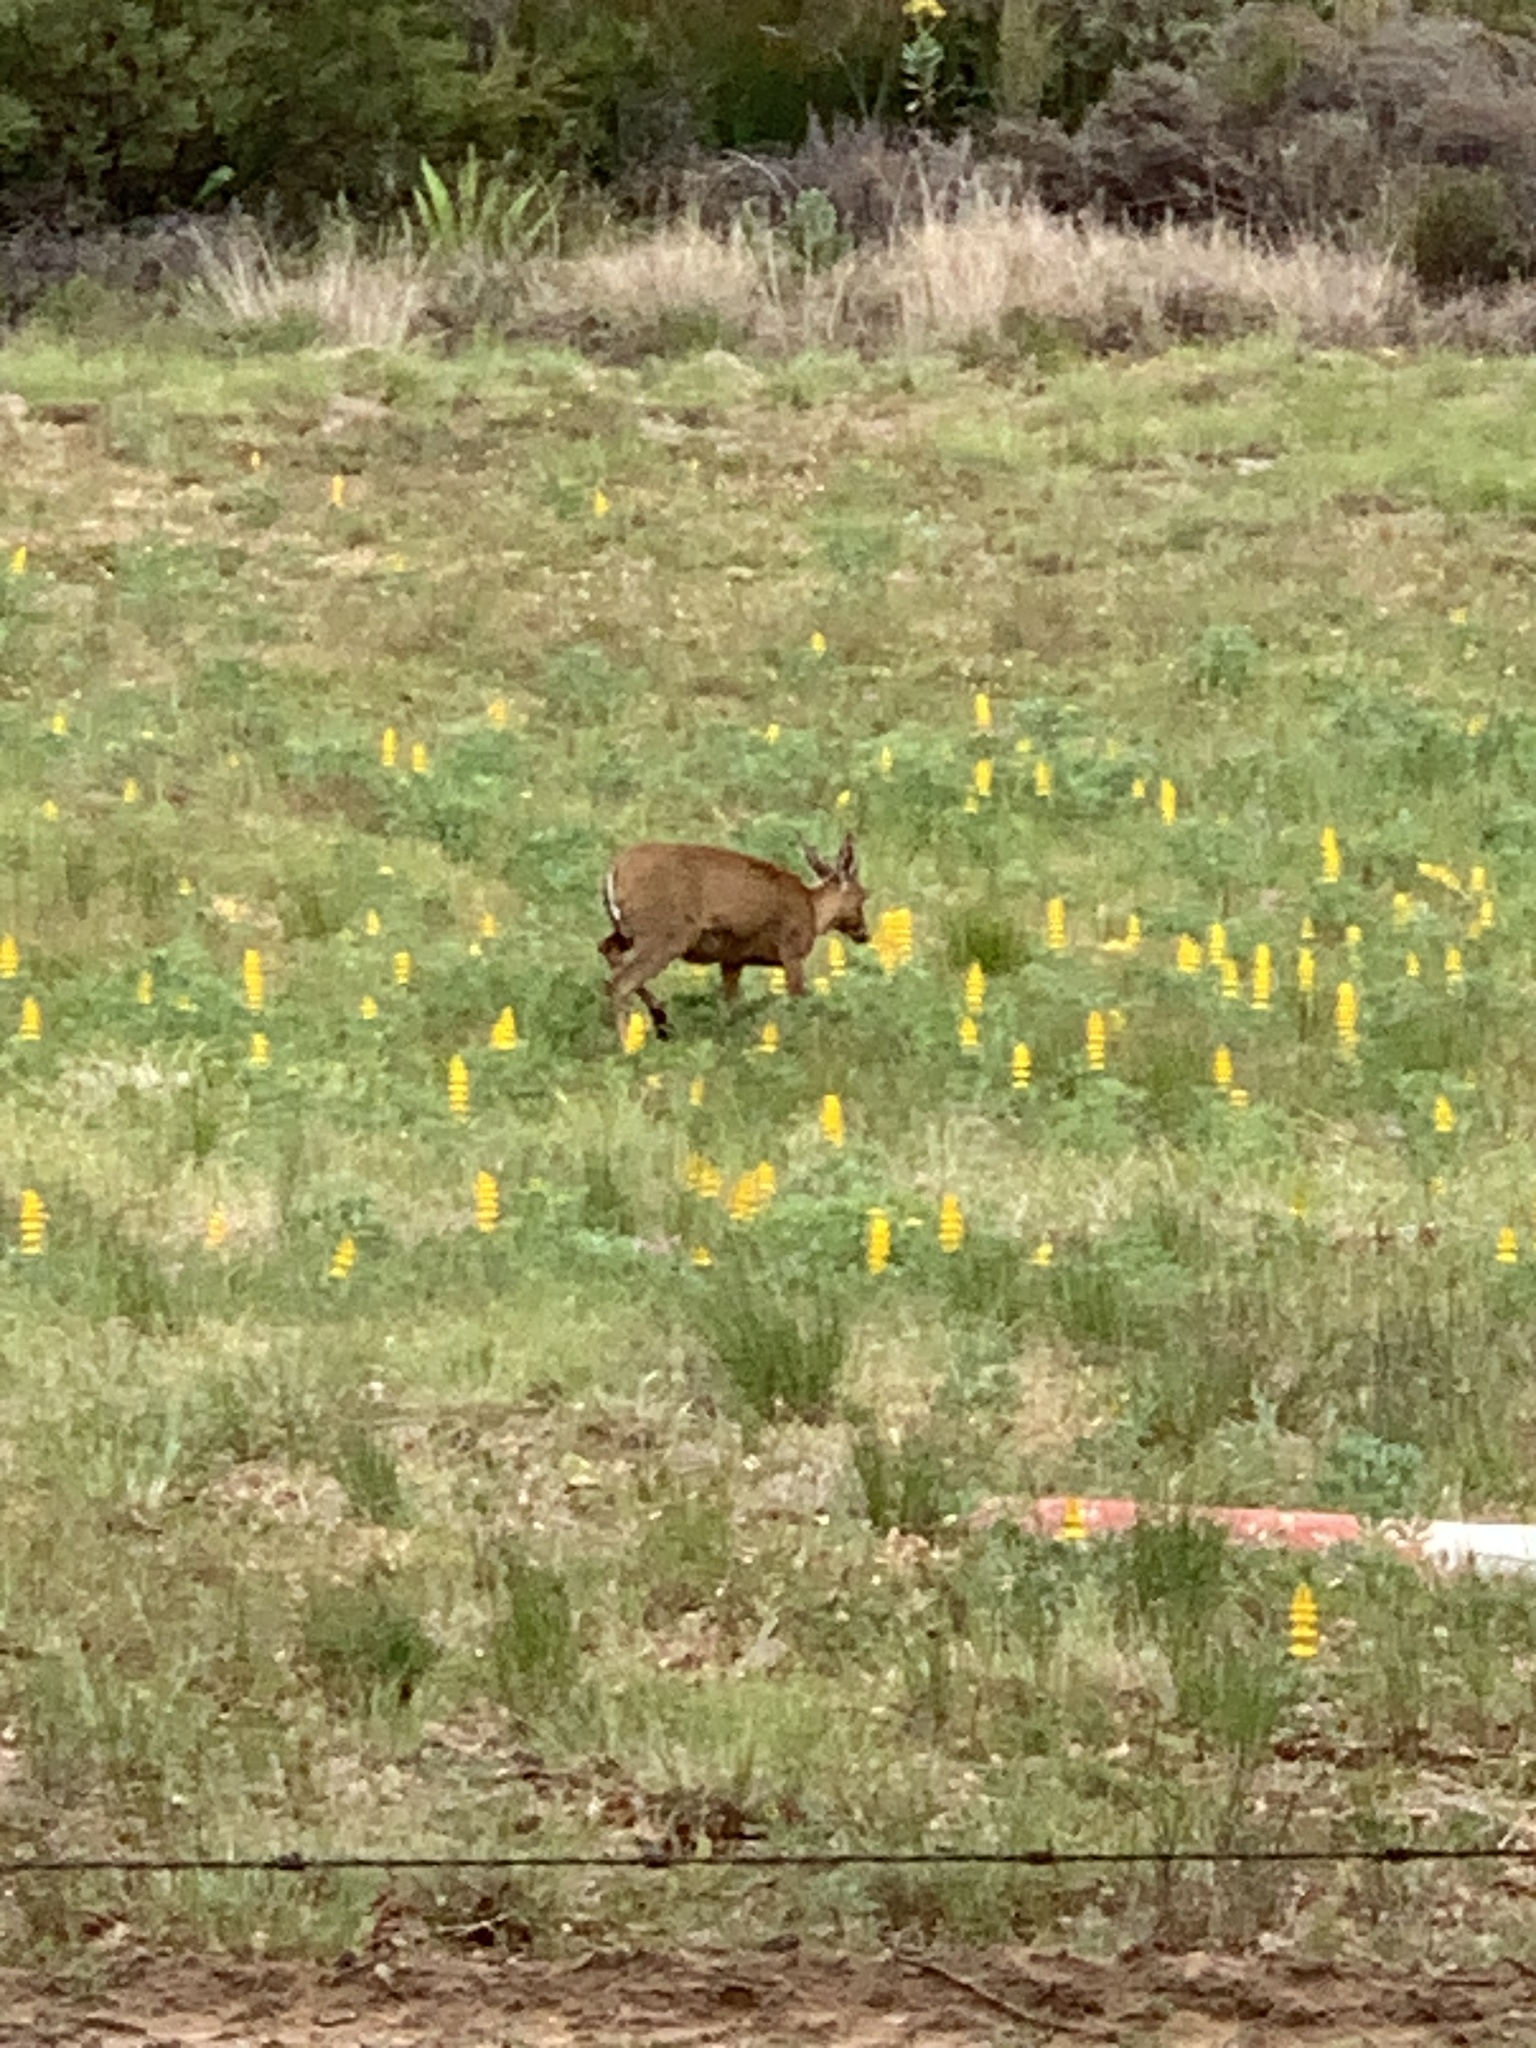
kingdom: Animalia
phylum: Chordata
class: Mammalia
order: Artiodactyla
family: Bovidae
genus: Sylvicapra
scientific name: Sylvicapra grimmia
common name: Bush duiker
